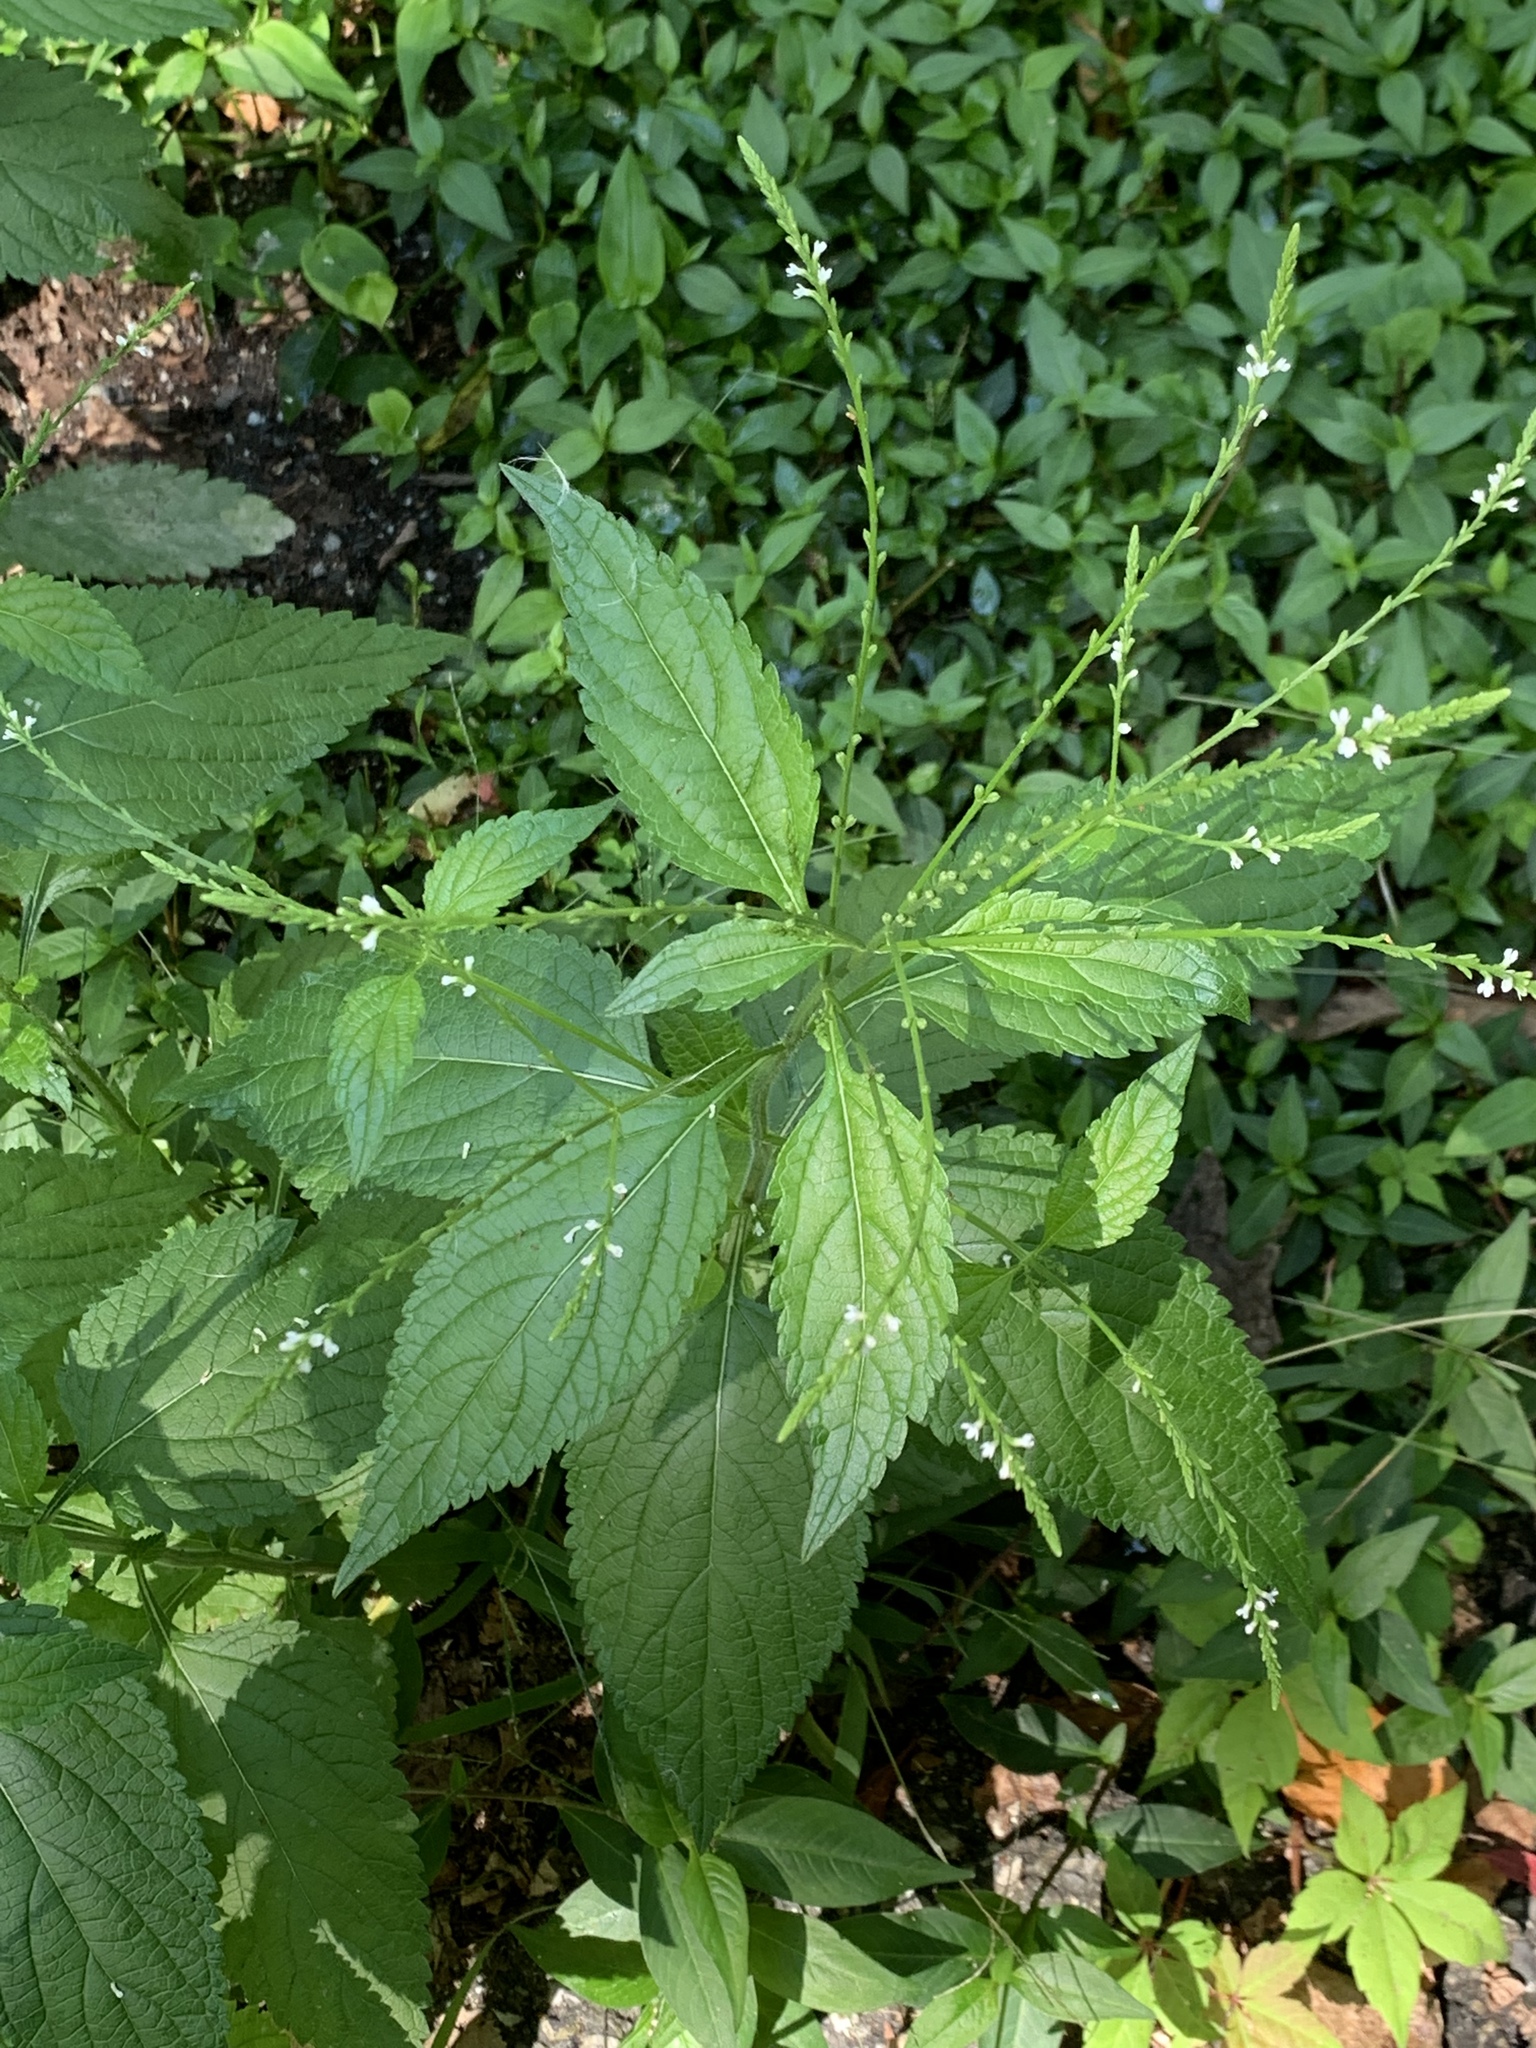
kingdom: Plantae
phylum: Tracheophyta
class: Magnoliopsida
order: Lamiales
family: Verbenaceae
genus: Verbena
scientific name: Verbena urticifolia
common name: Nettle-leaved vervain
